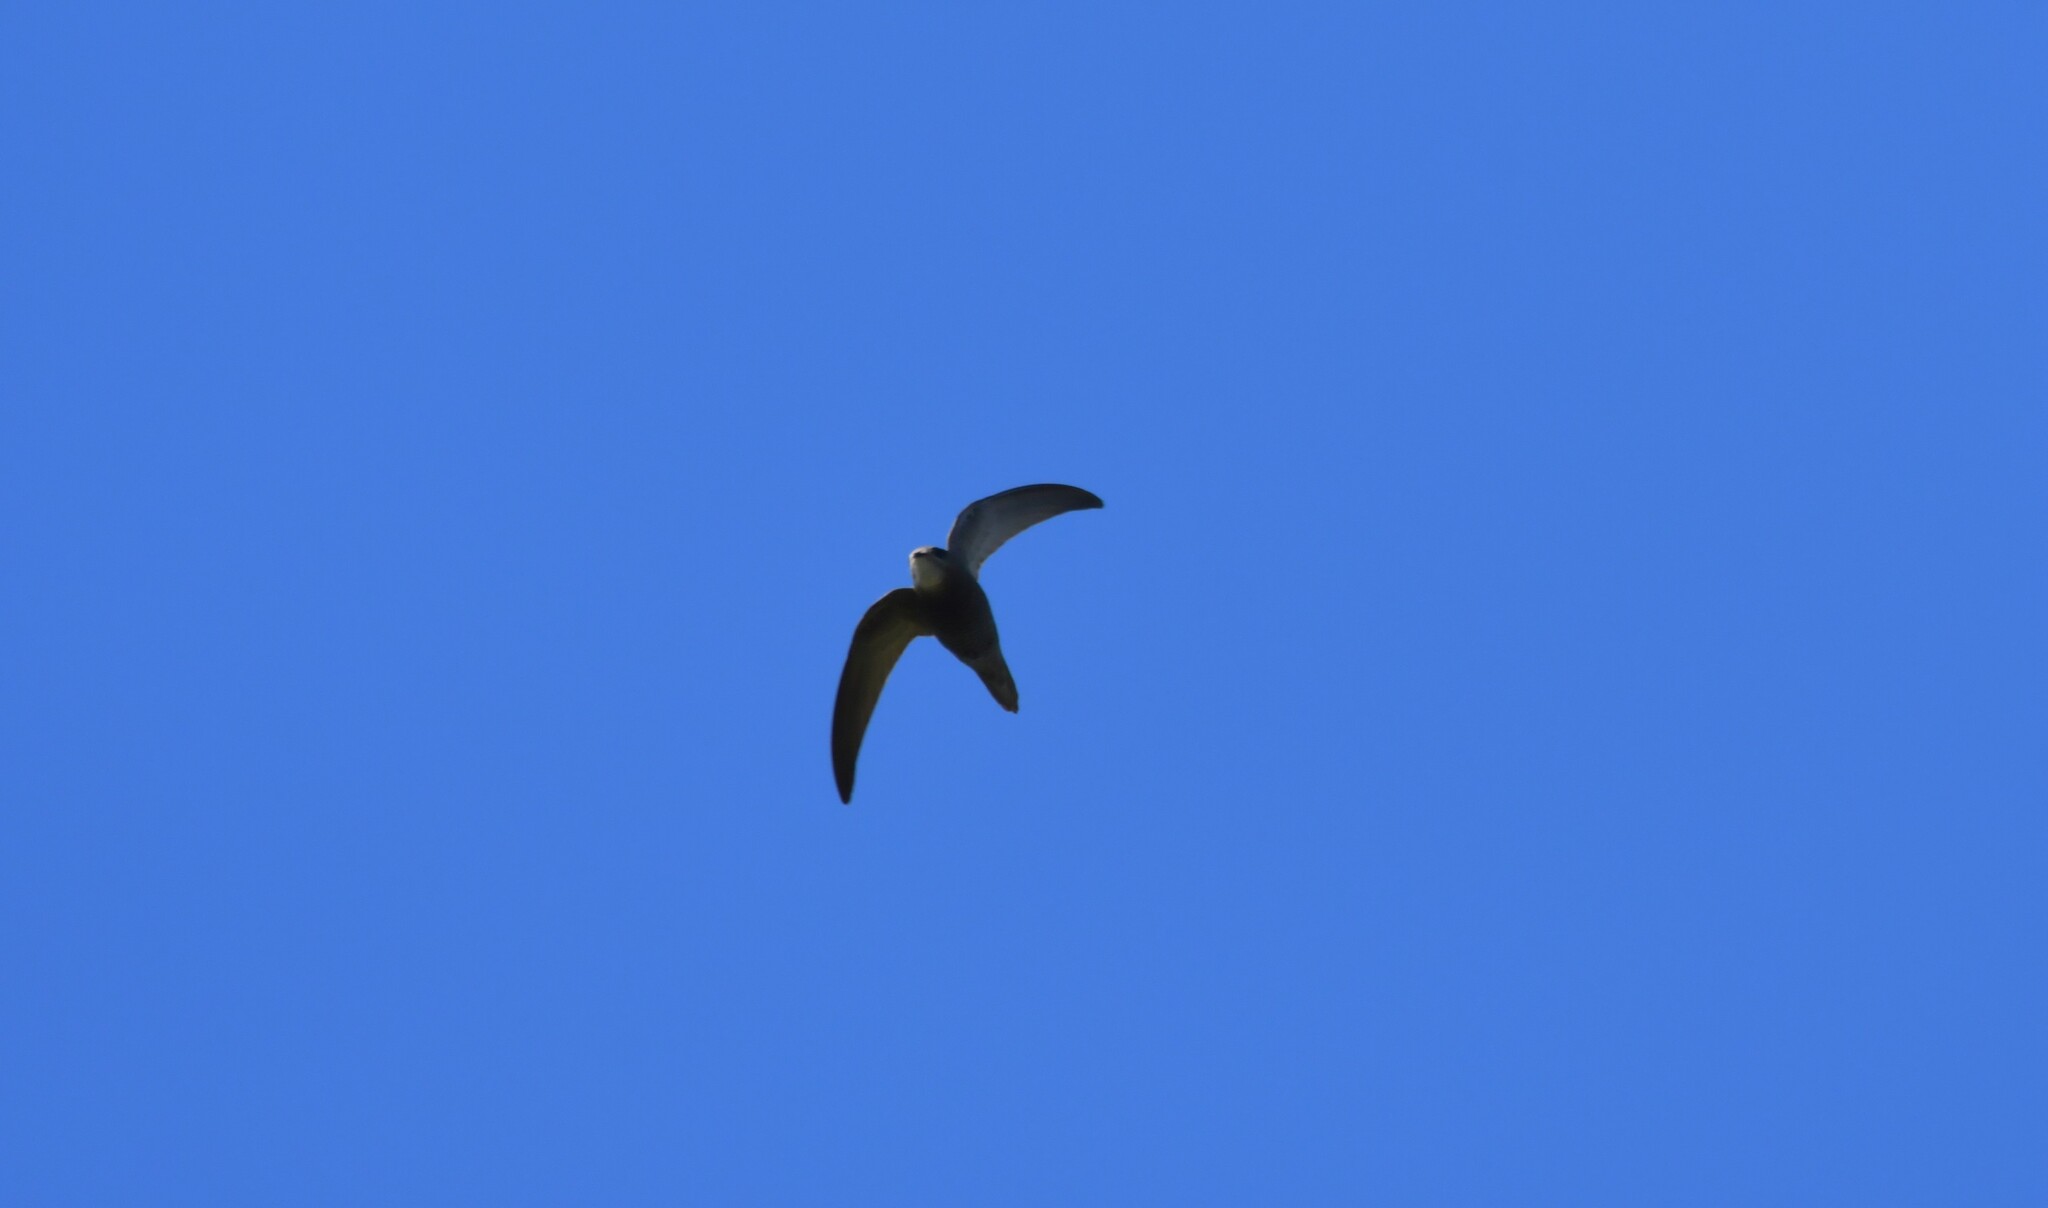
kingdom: Animalia
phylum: Chordata
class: Aves
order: Apodiformes
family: Apodidae
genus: Apus
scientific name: Apus pallidus
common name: Pallid swift
